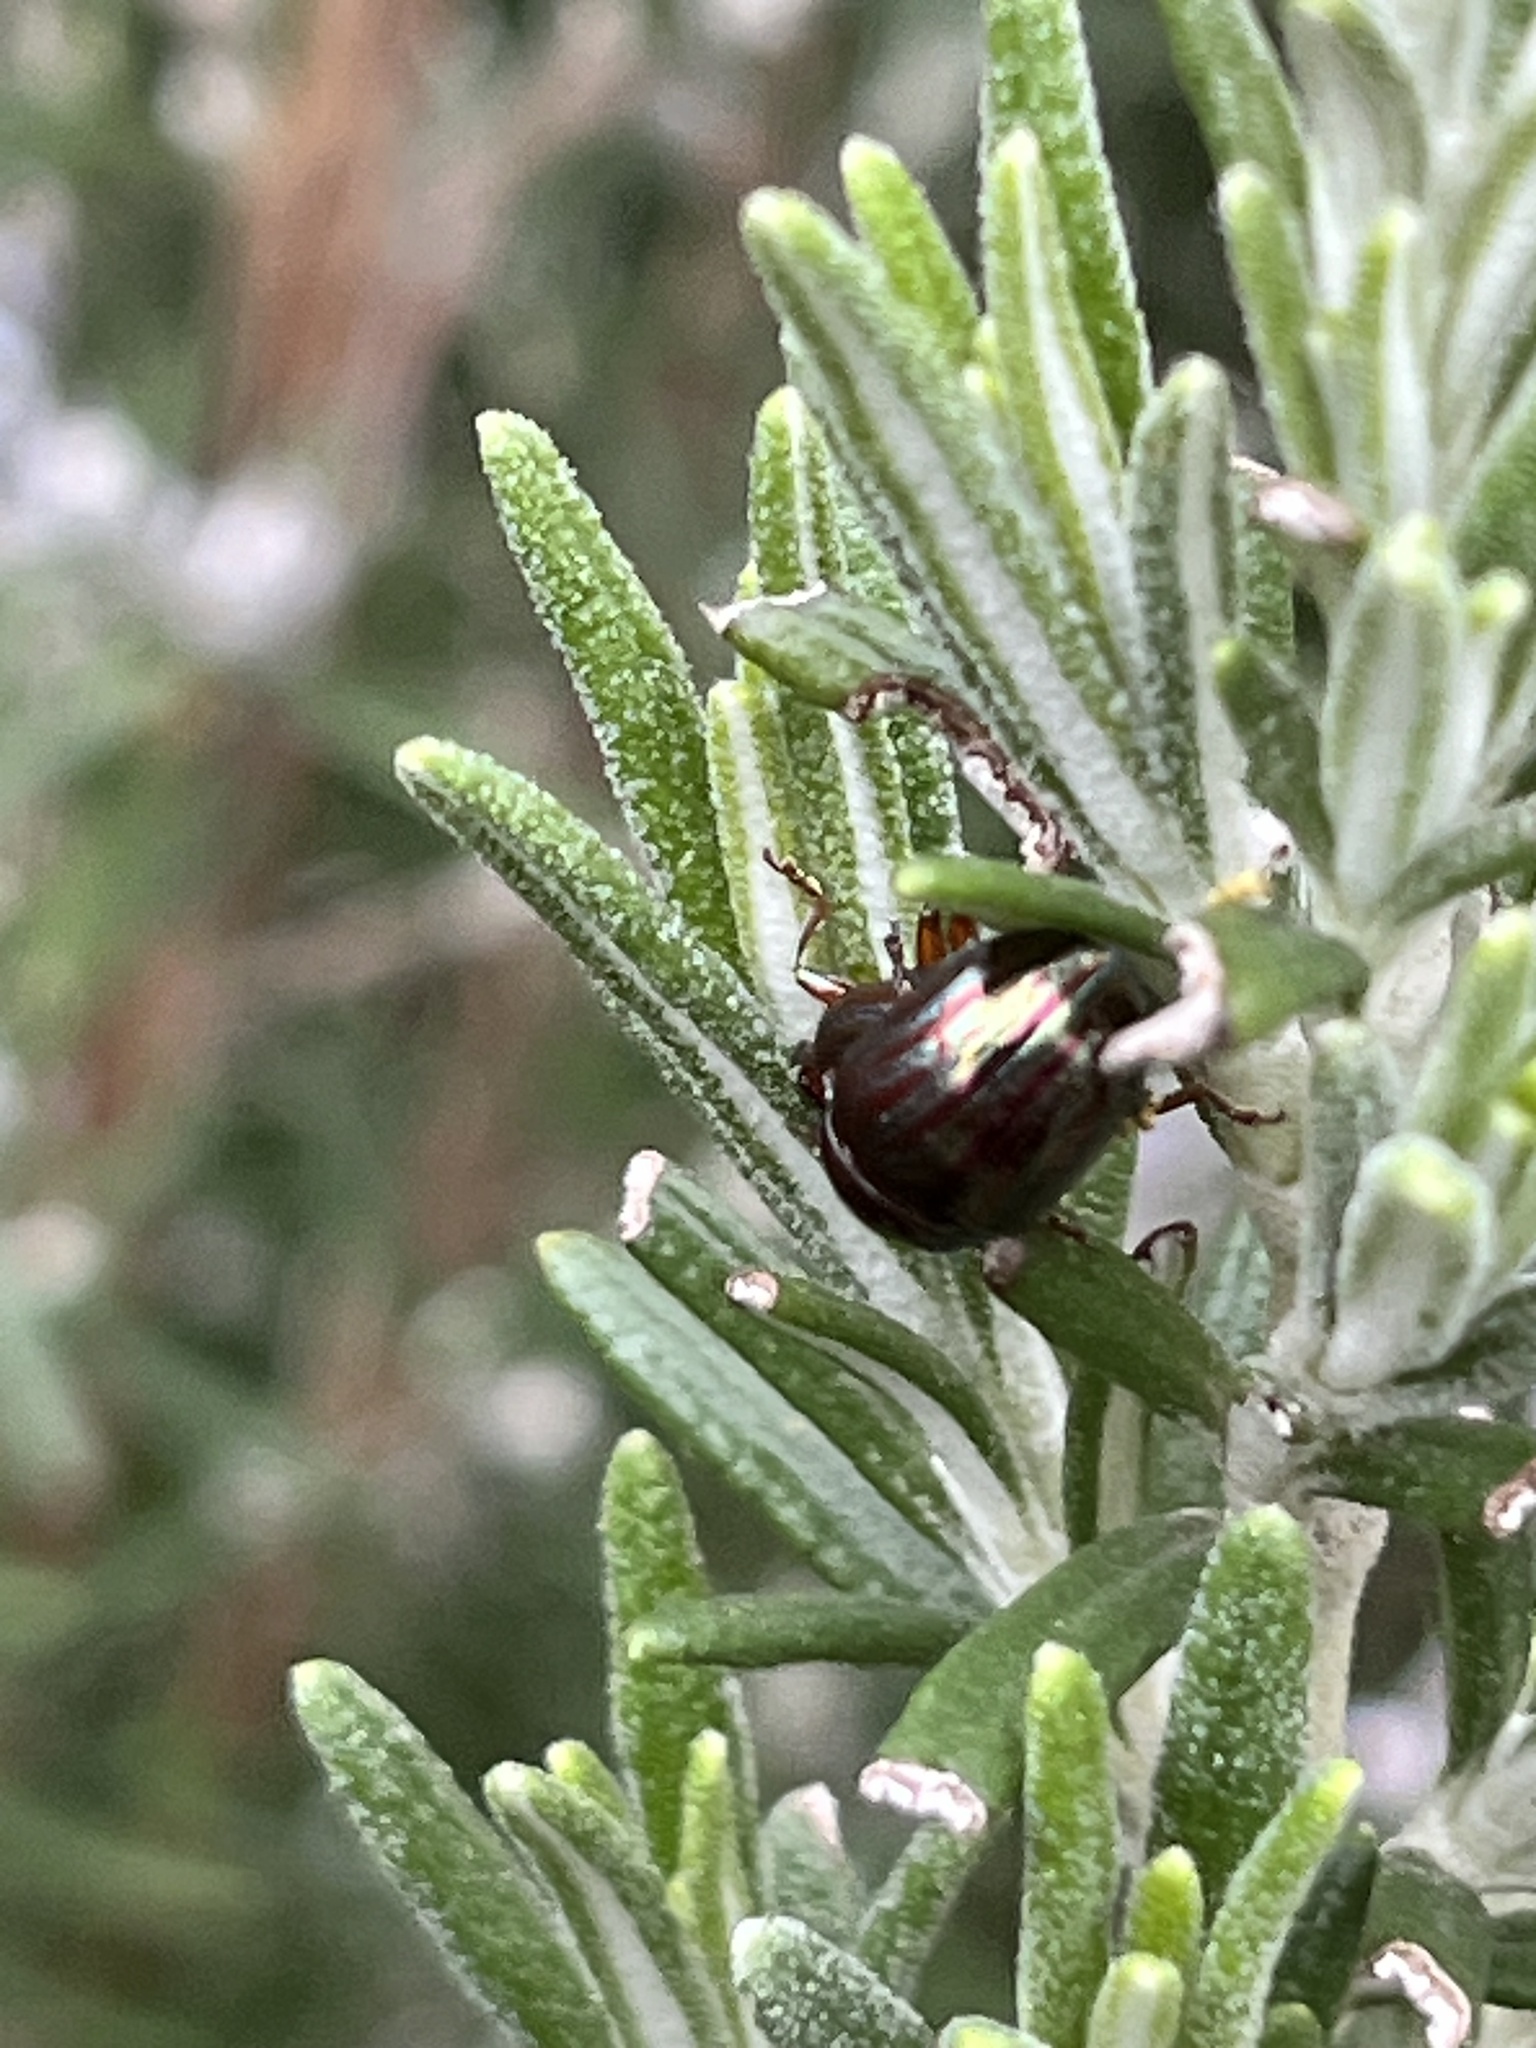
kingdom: Animalia
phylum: Arthropoda
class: Insecta
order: Coleoptera
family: Chrysomelidae
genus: Chrysolina
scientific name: Chrysolina americana
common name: Rosemary beetle
